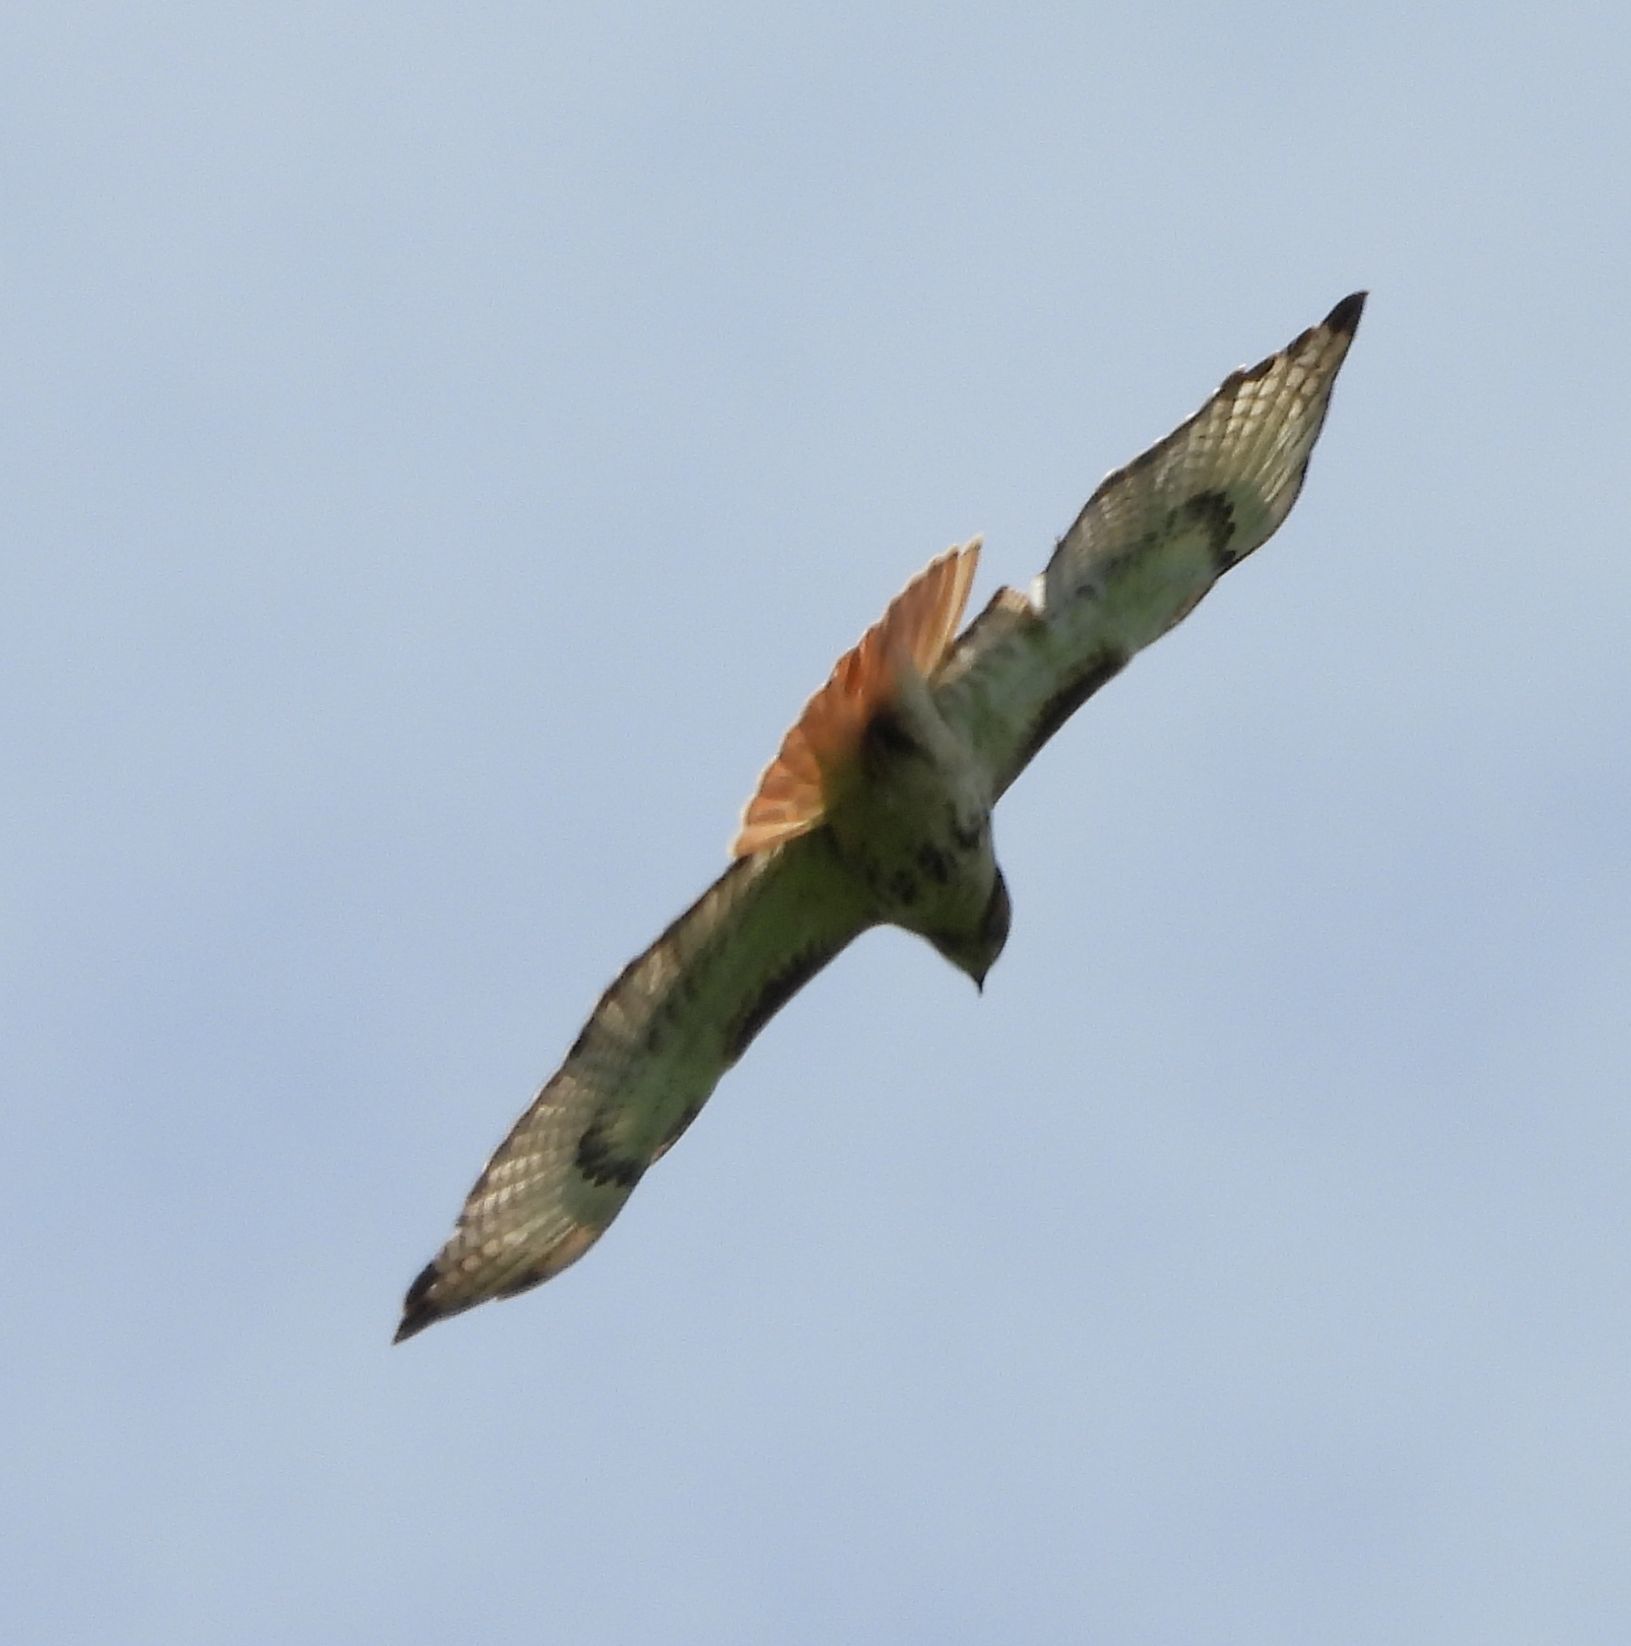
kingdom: Animalia
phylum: Chordata
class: Aves
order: Accipitriformes
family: Accipitridae
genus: Buteo
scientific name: Buteo jamaicensis
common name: Red-tailed hawk
